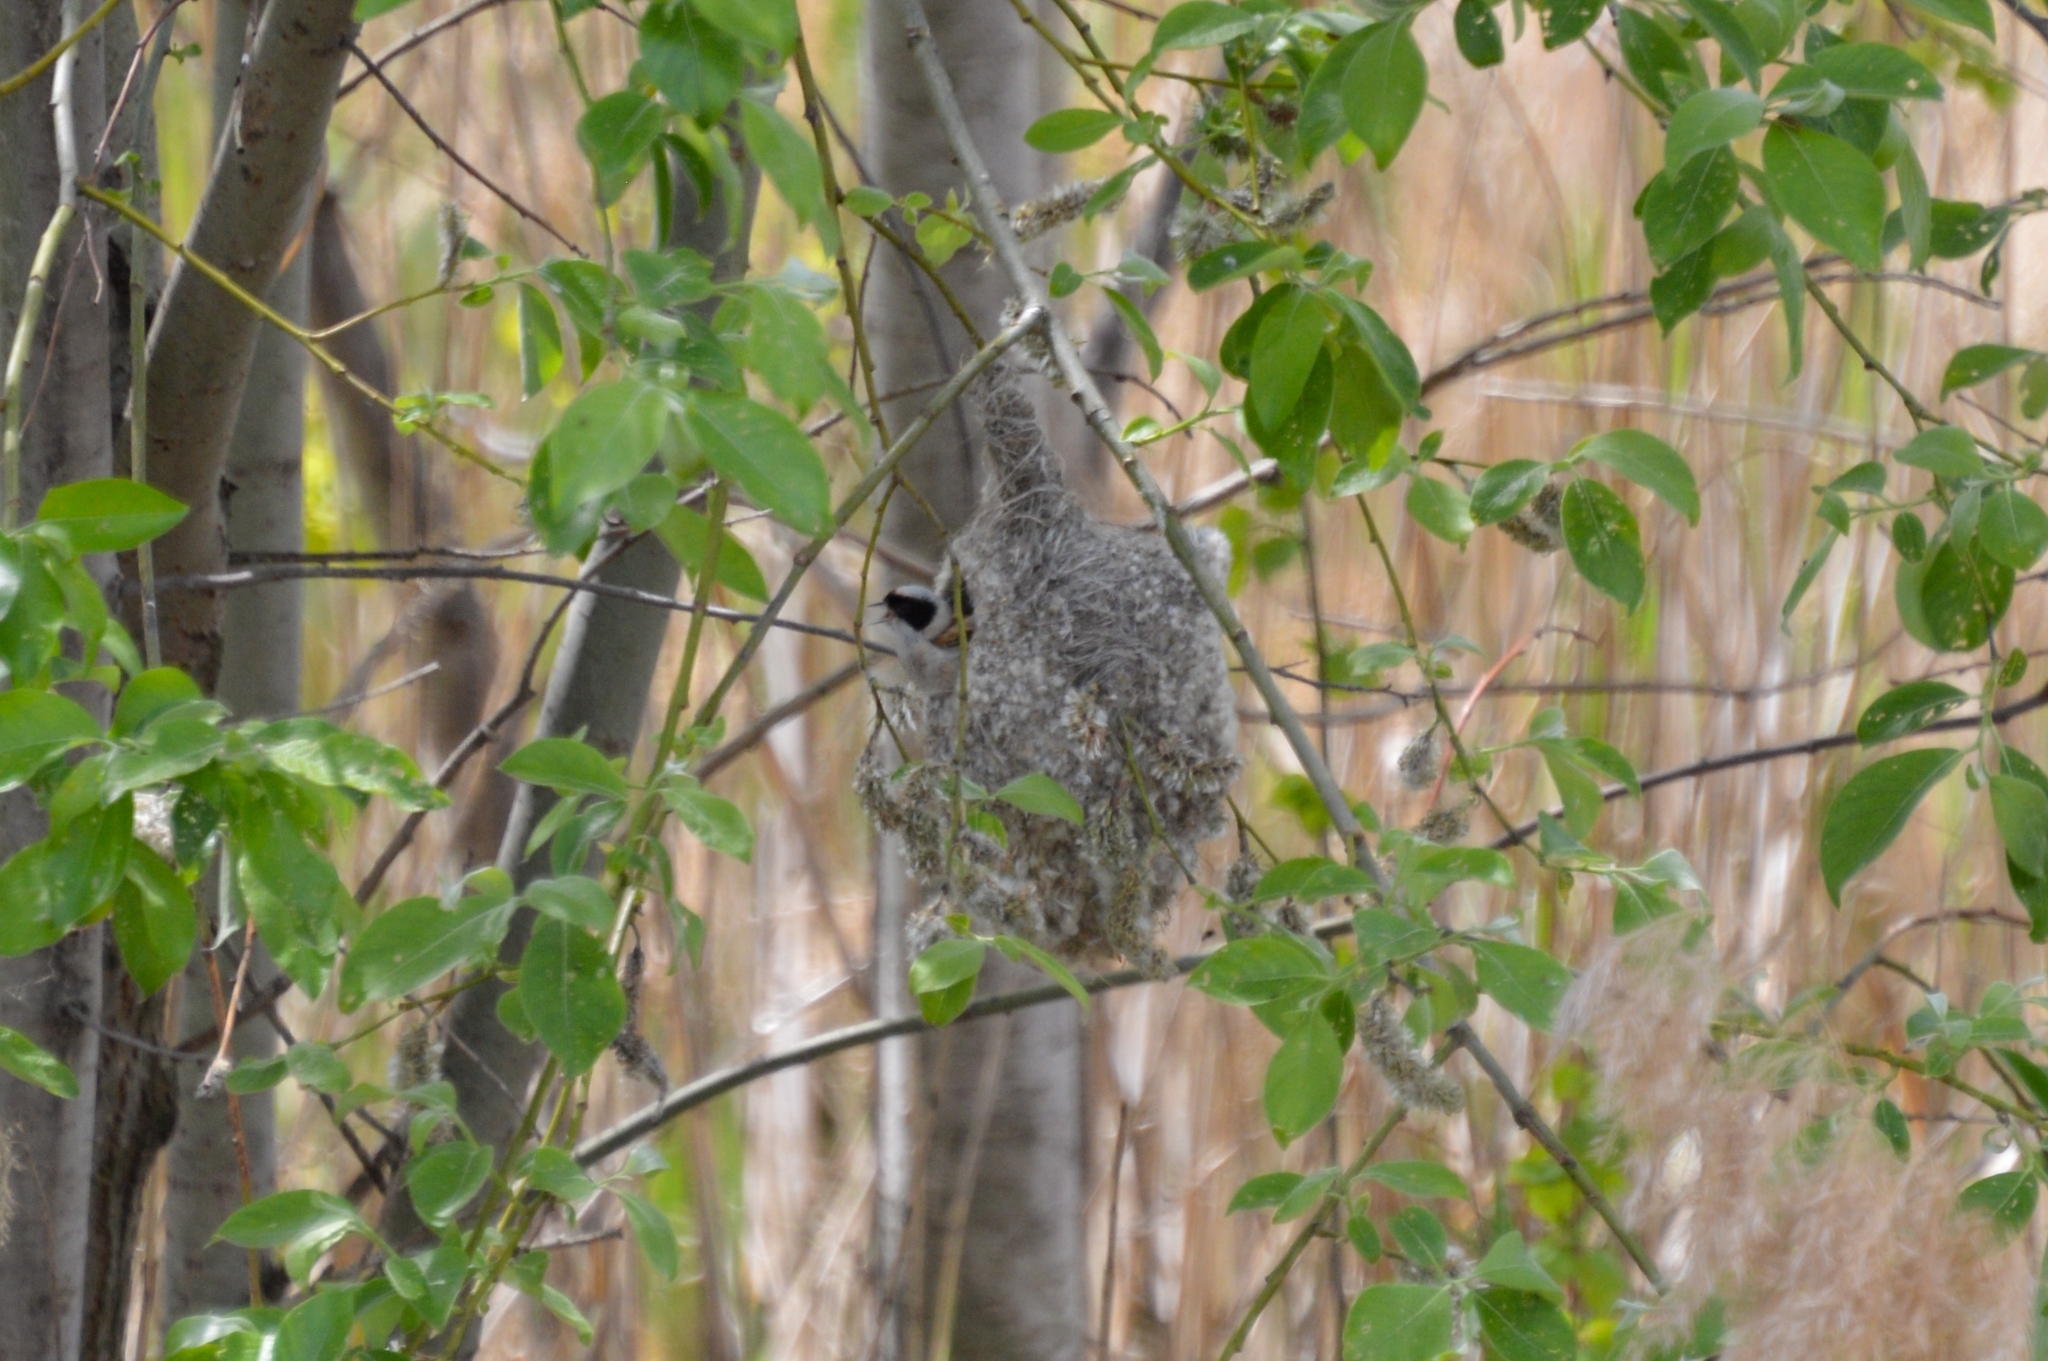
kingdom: Animalia
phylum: Chordata
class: Aves
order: Passeriformes
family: Remizidae
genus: Remiz
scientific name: Remiz pendulinus
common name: Eurasian penduline tit
